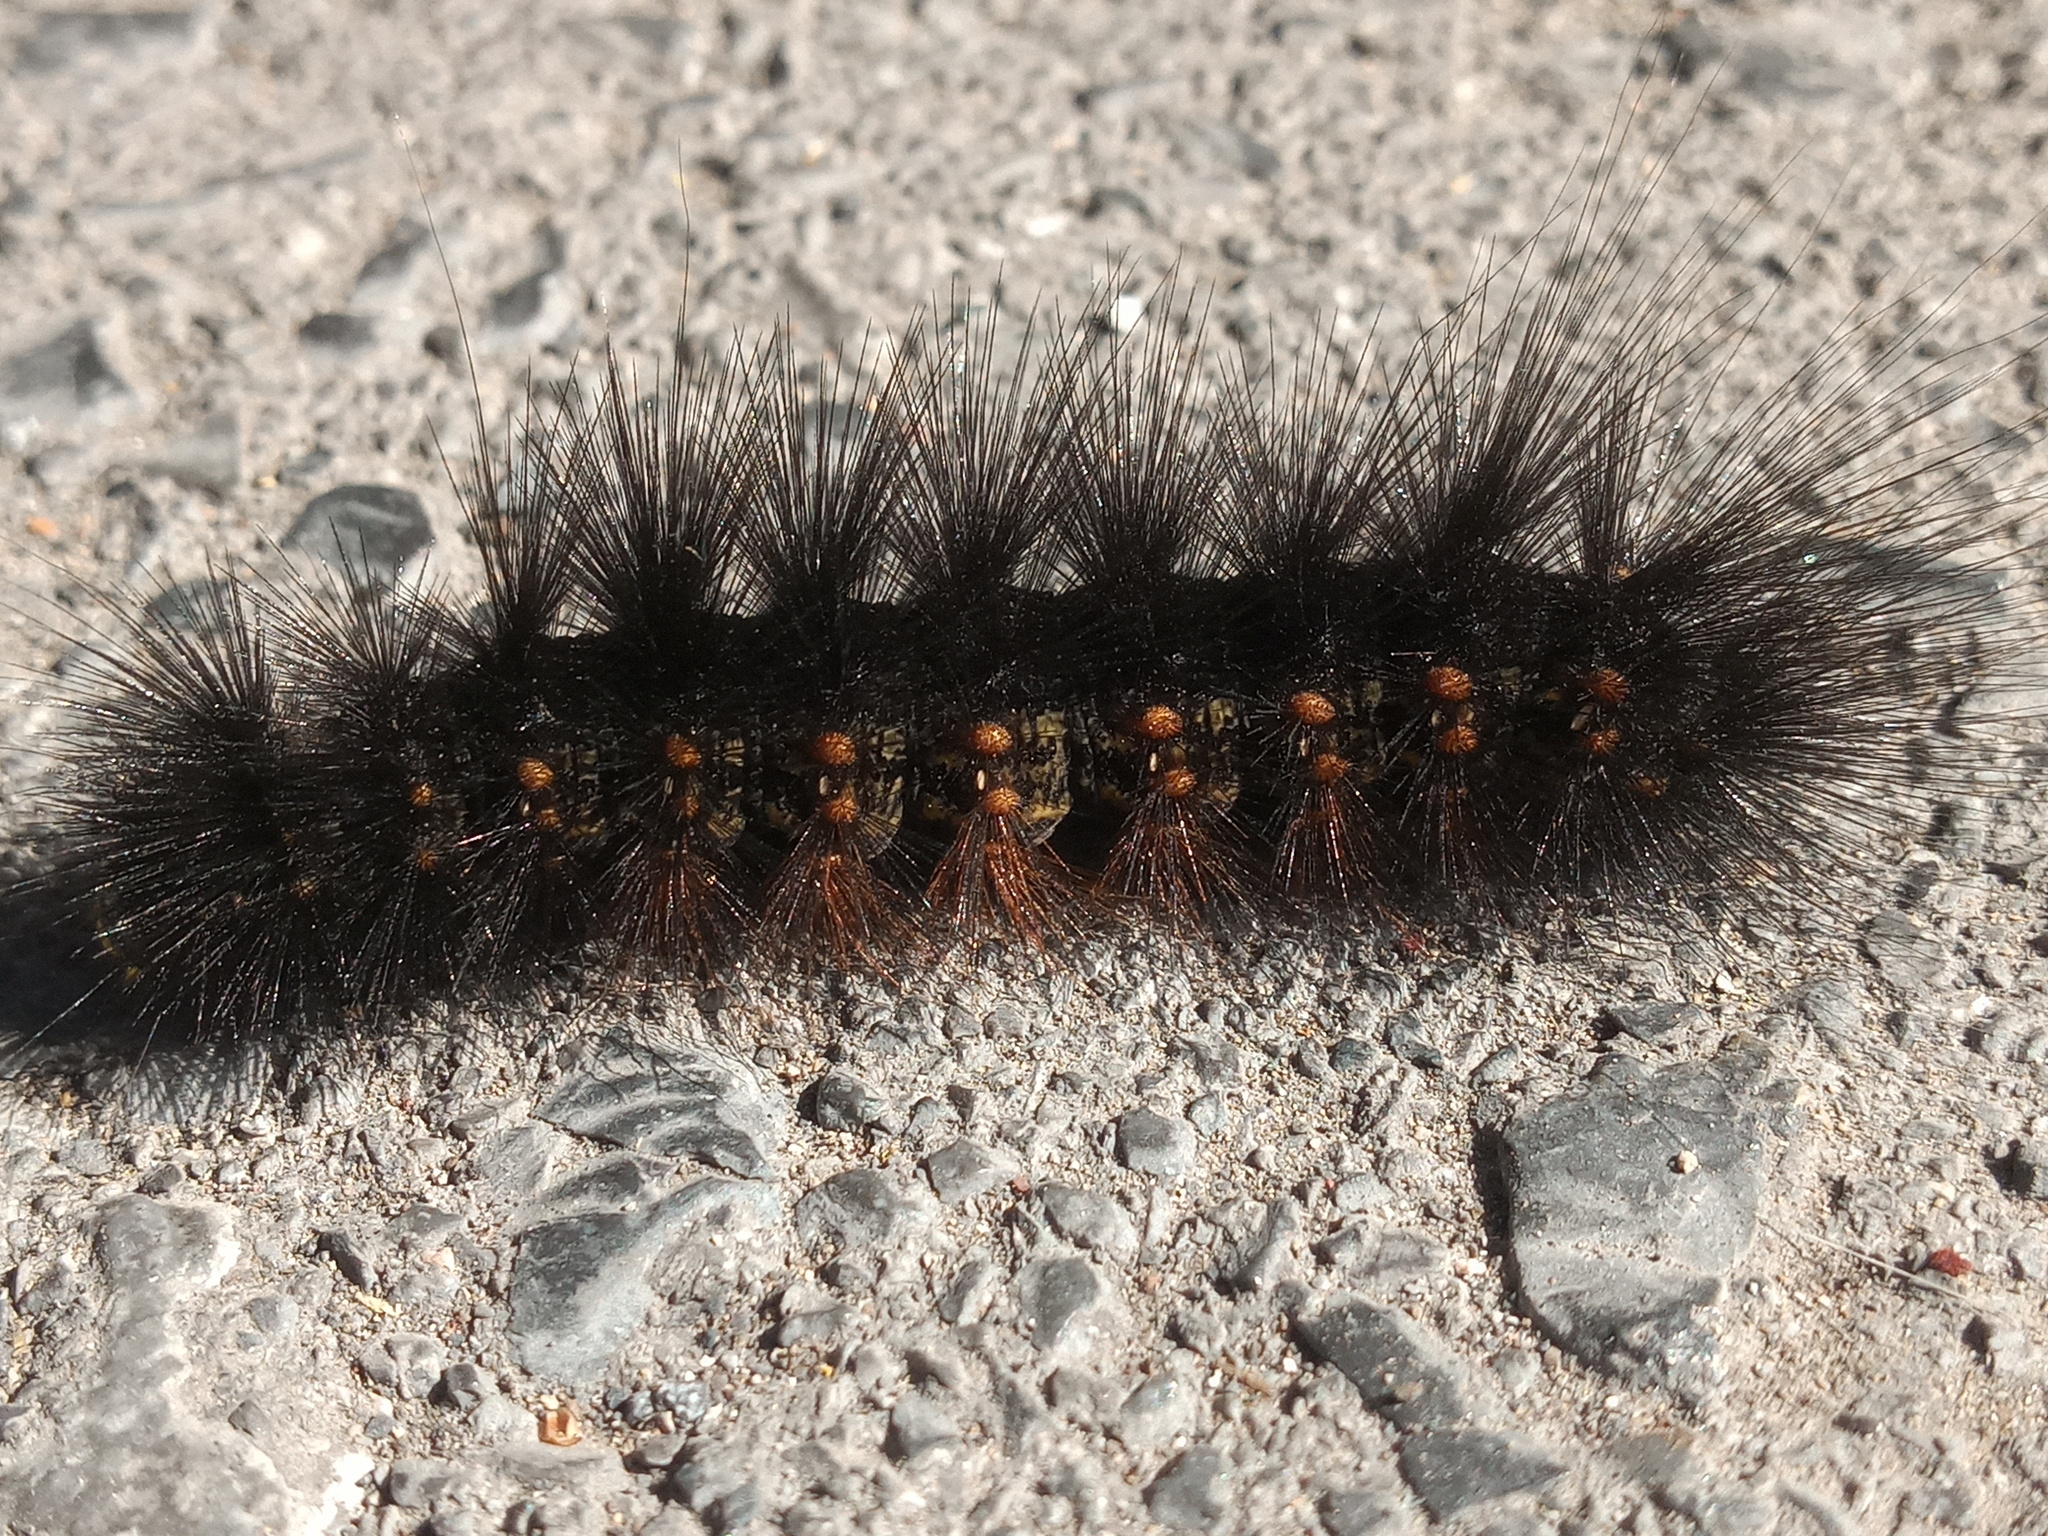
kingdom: Animalia
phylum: Arthropoda
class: Insecta
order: Lepidoptera
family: Erebidae
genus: Estigmene
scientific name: Estigmene acrea
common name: Salt marsh moth
